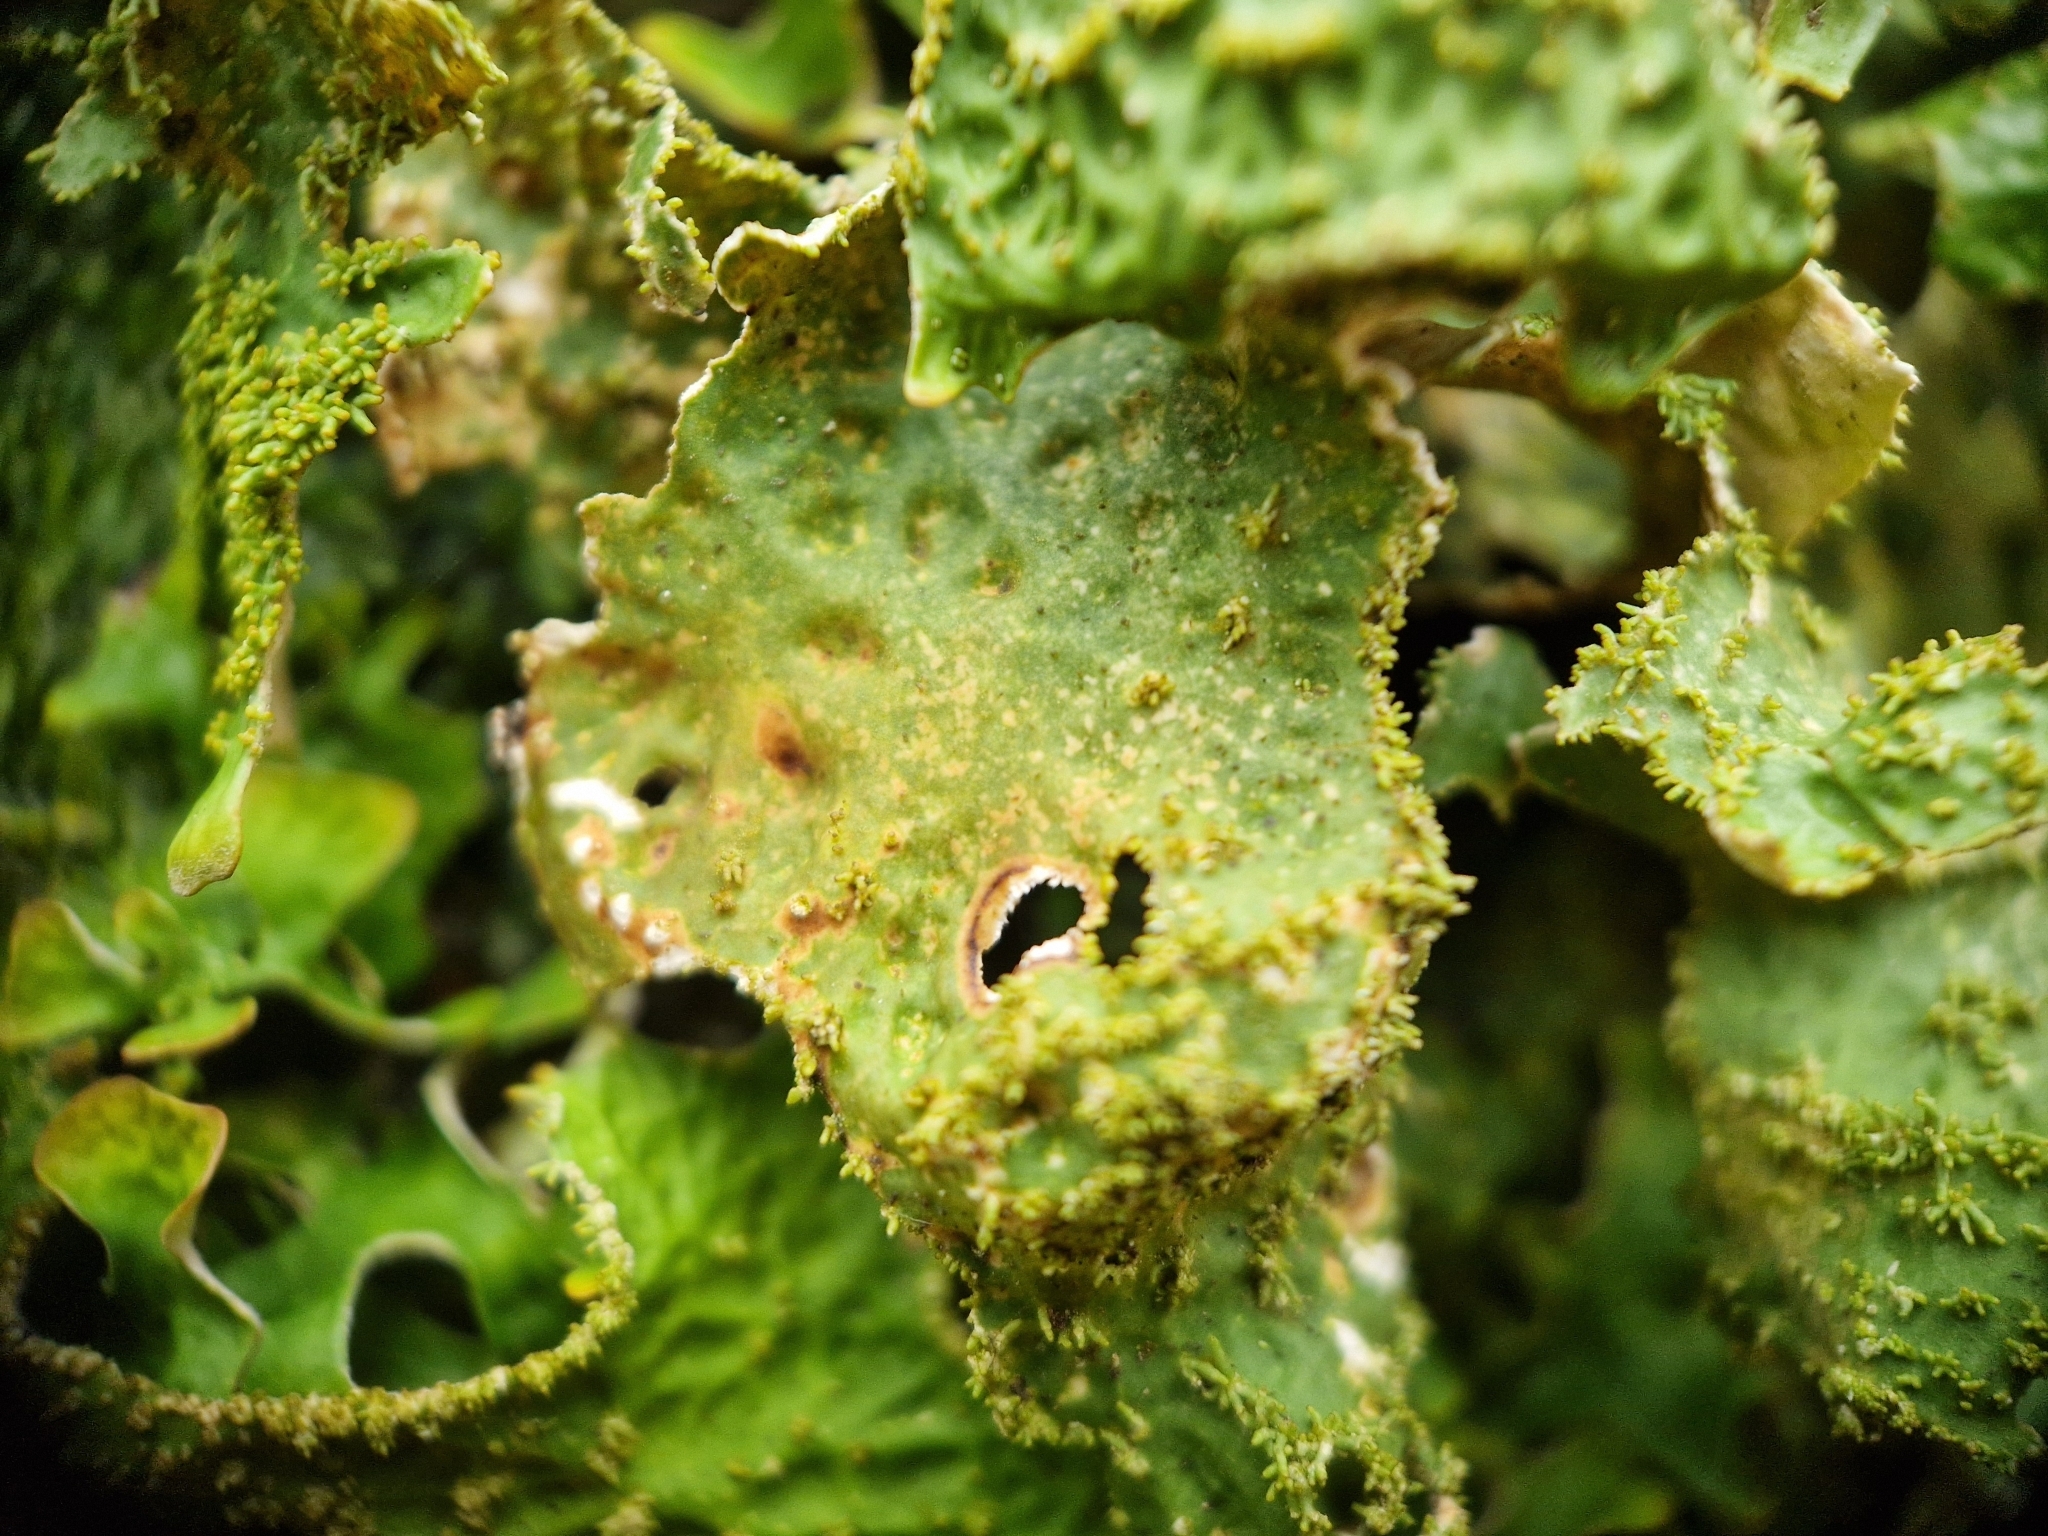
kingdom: Fungi
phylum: Ascomycota
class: Lecanoromycetes
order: Peltigerales
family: Lobariaceae
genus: Lobaria
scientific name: Lobaria pulmonaria
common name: Lungwort
